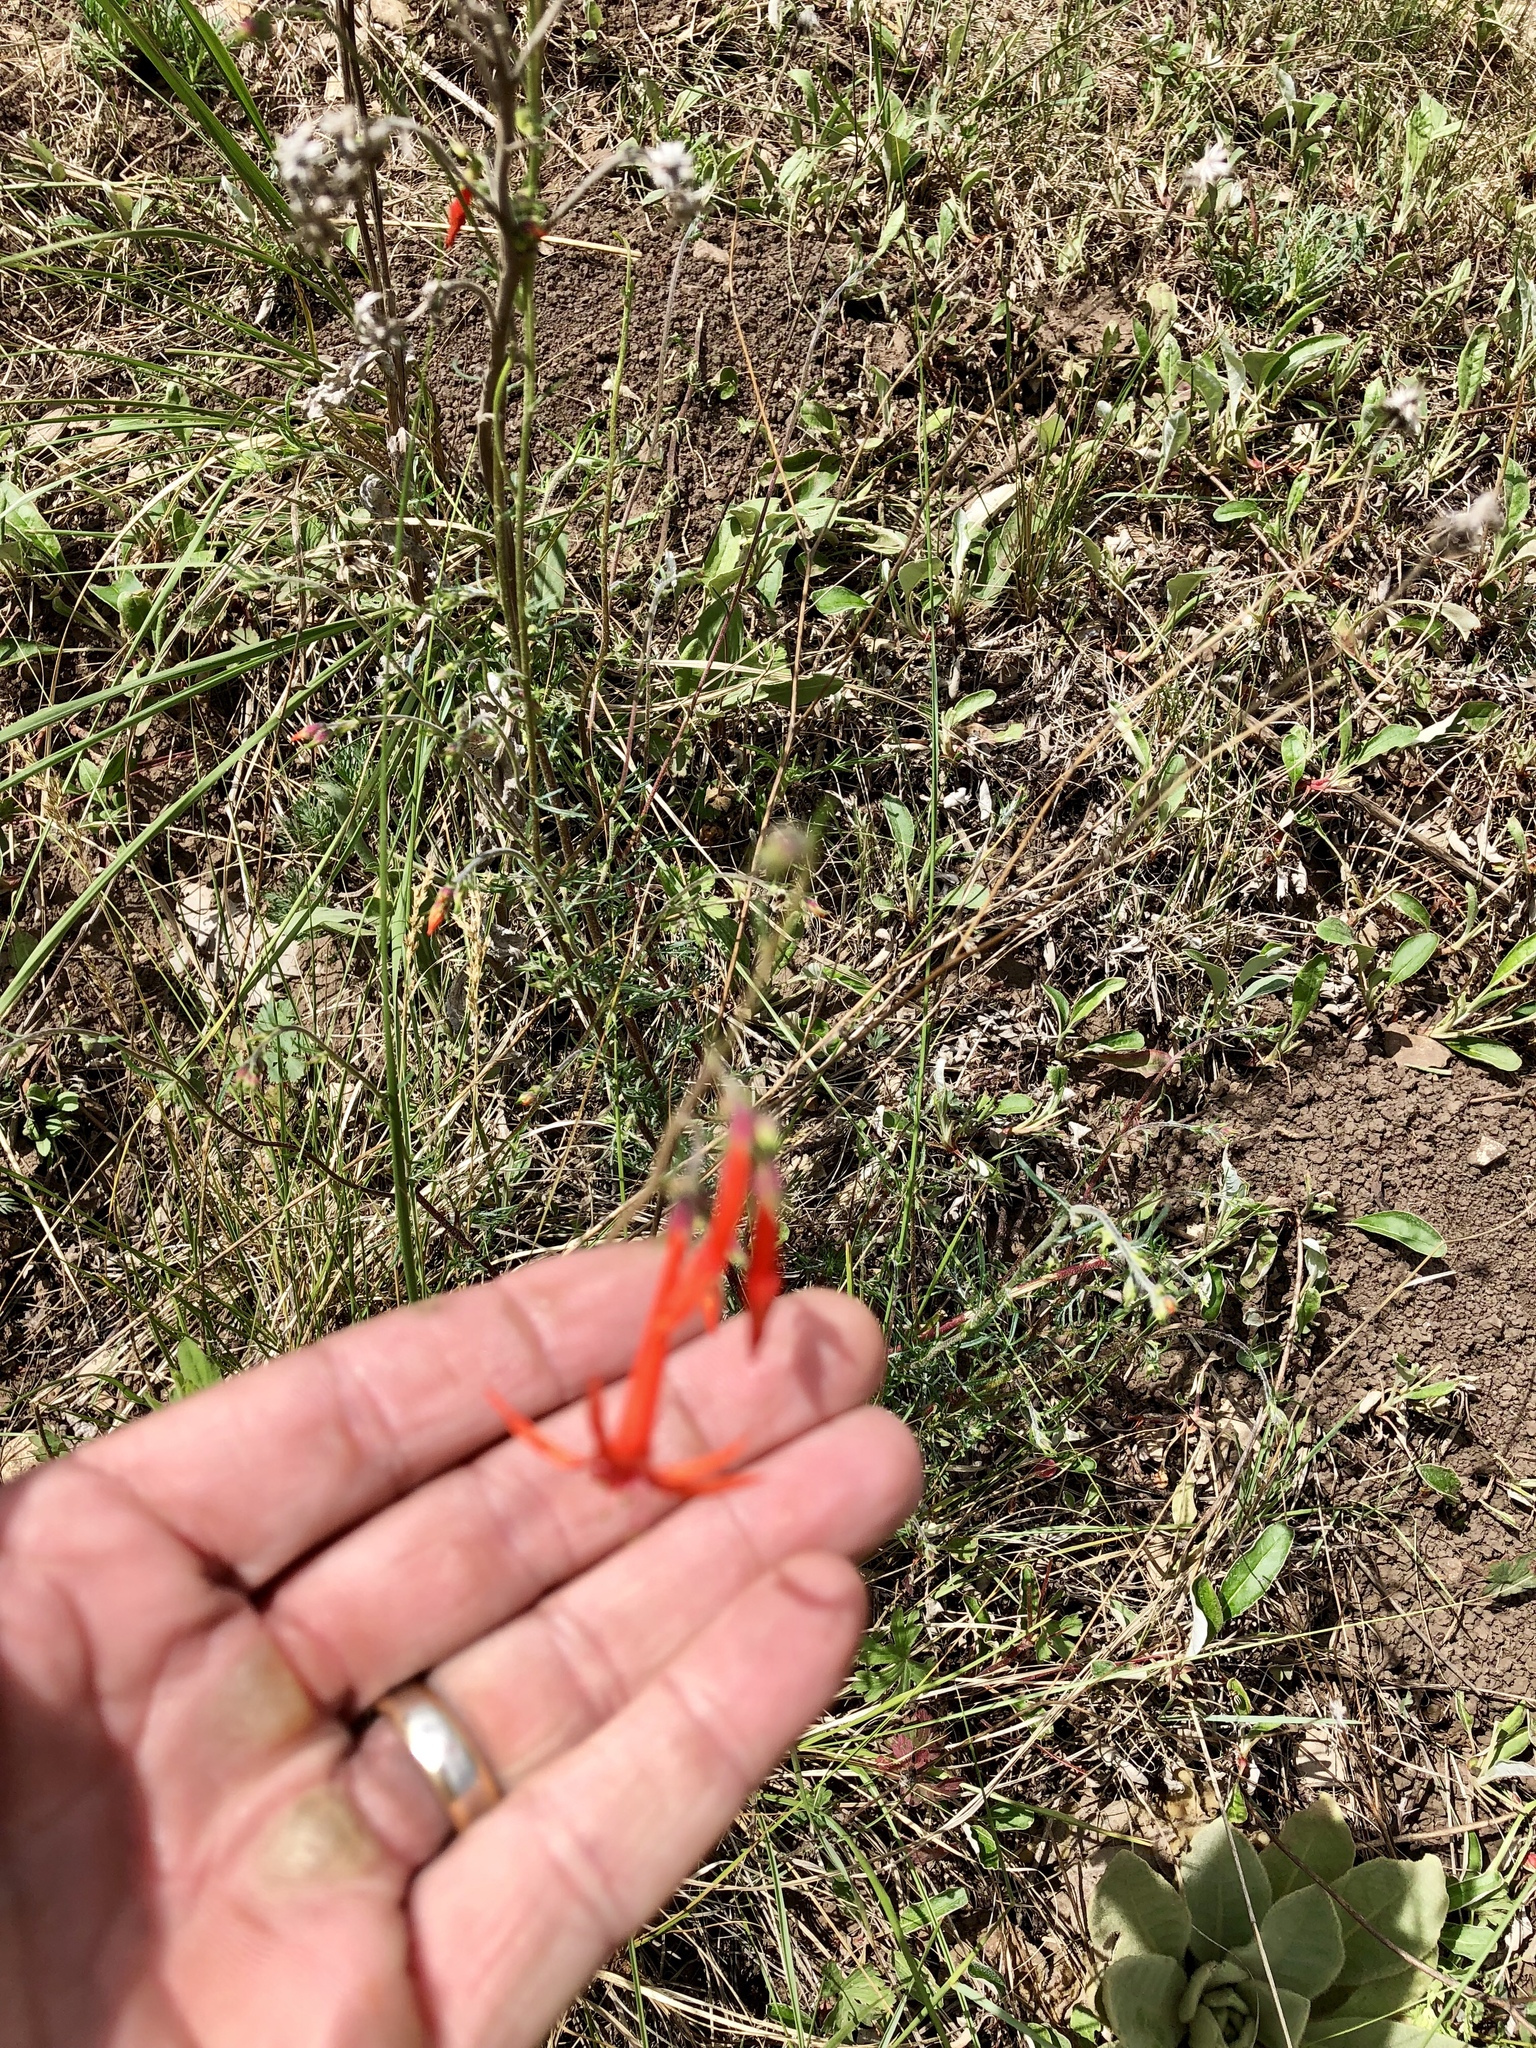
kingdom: Plantae
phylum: Tracheophyta
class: Magnoliopsida
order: Ericales
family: Polemoniaceae
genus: Ipomopsis
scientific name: Ipomopsis aggregata
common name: Scarlet gilia
